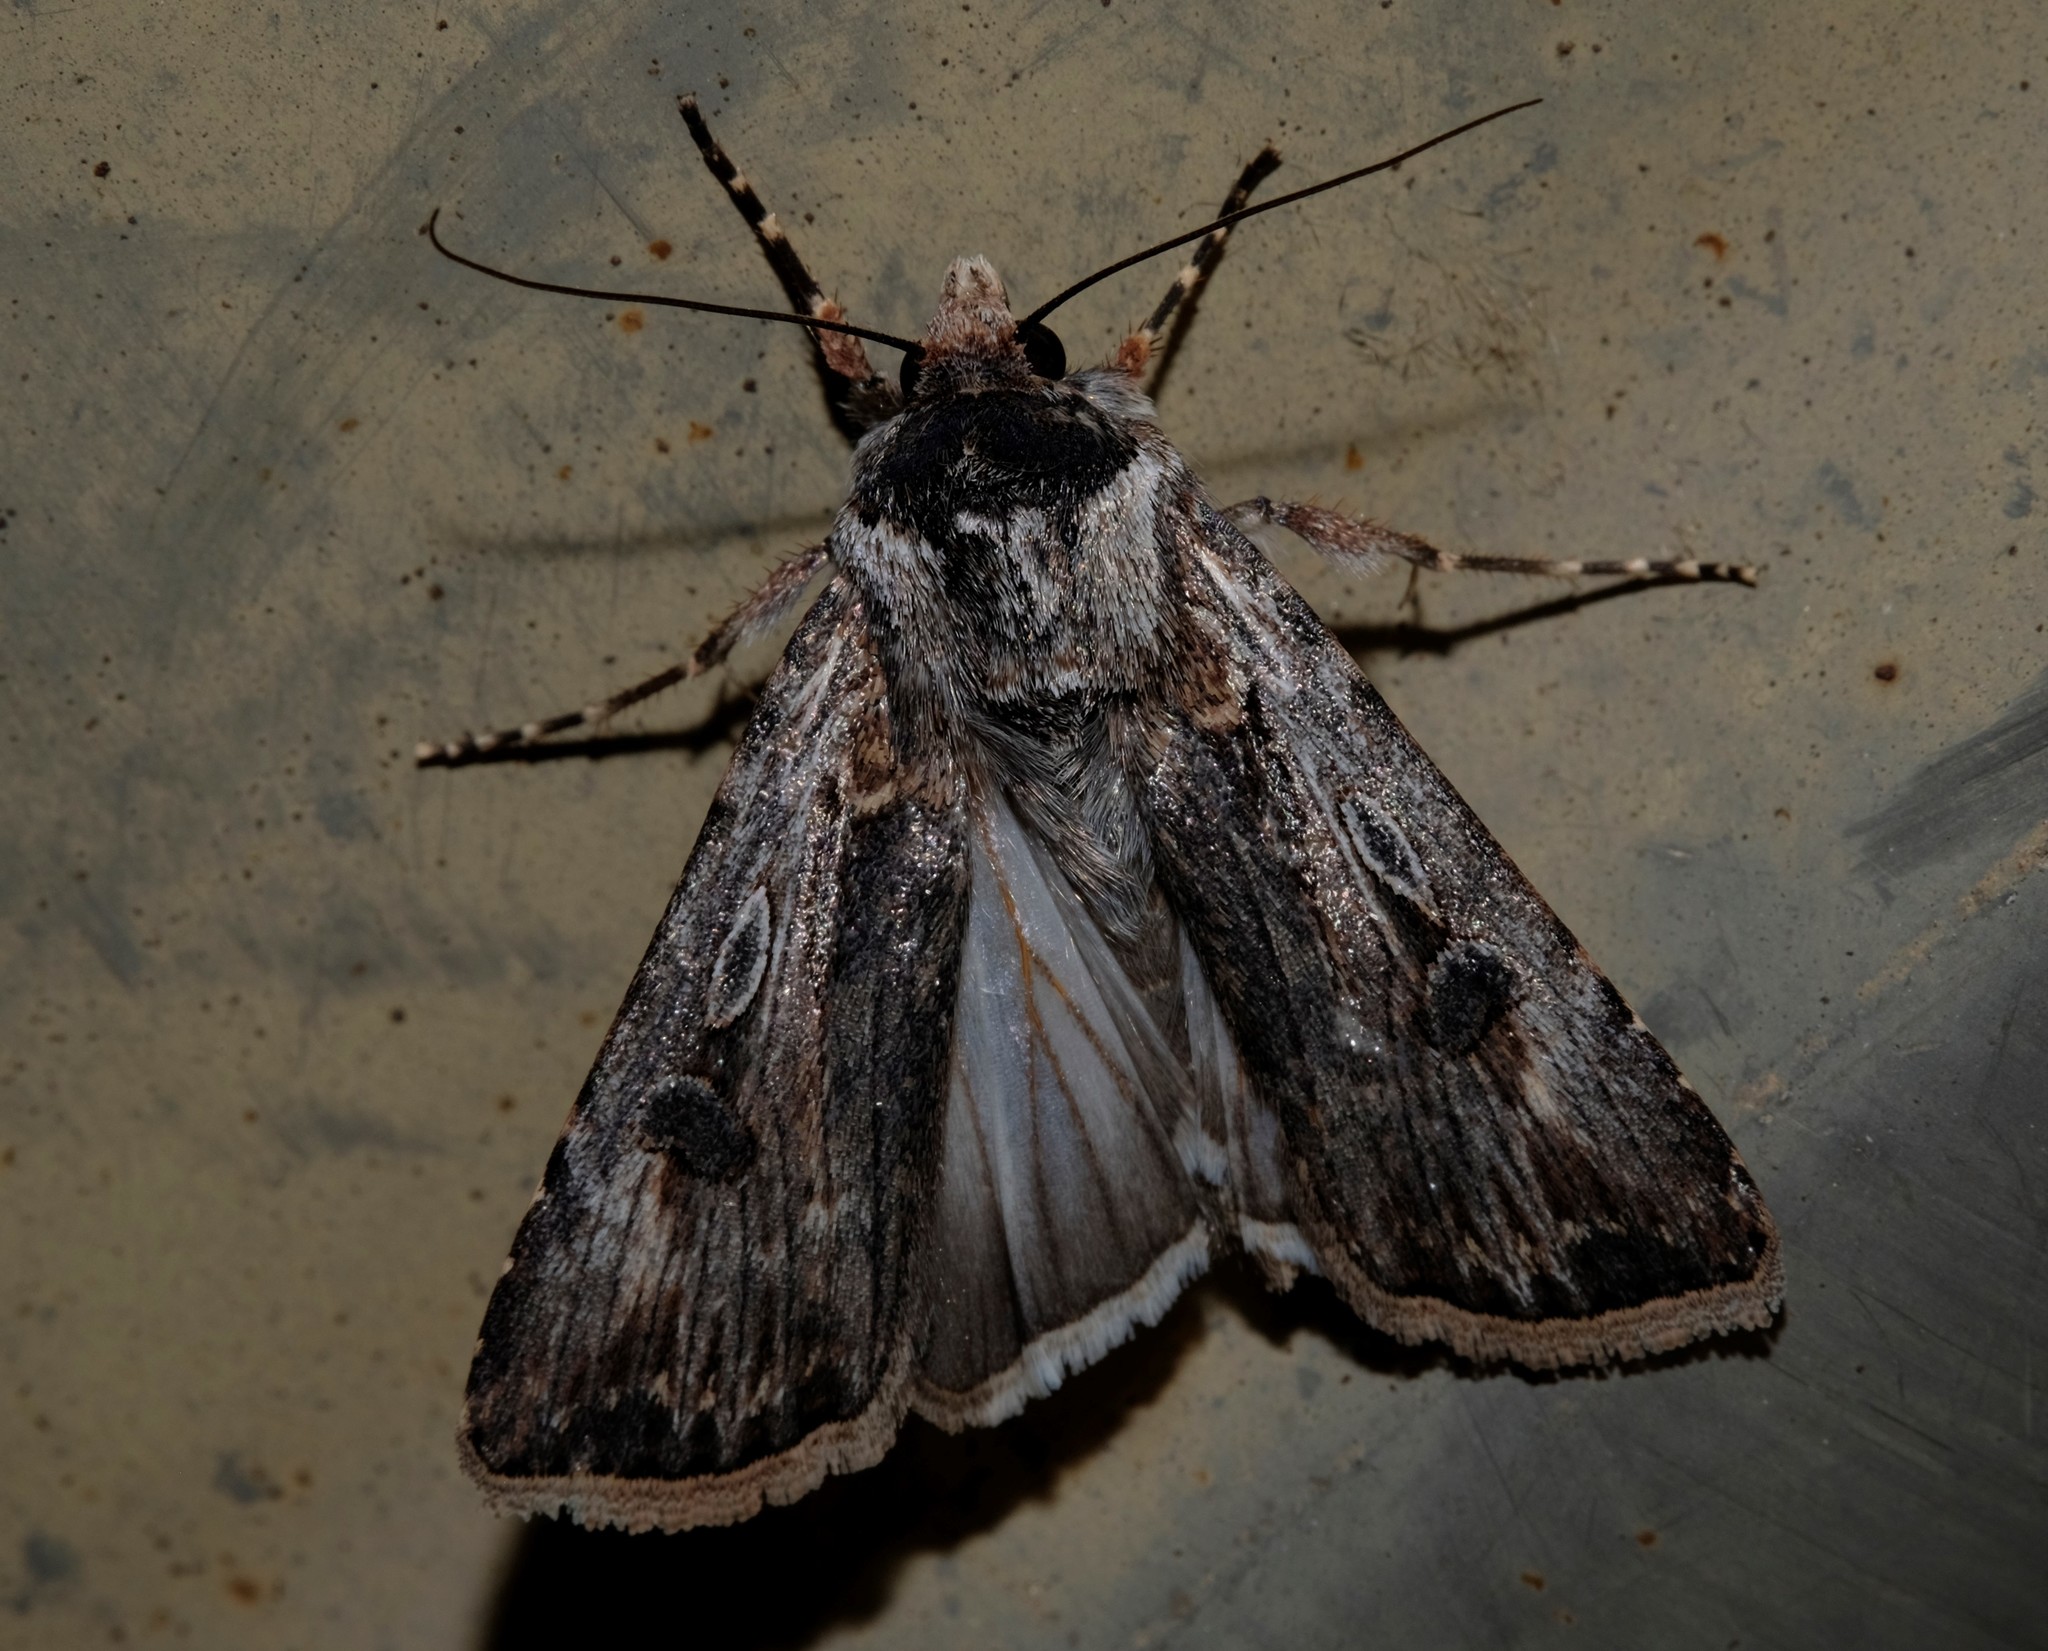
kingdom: Animalia
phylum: Arthropoda
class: Insecta
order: Lepidoptera
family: Noctuidae
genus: Agrotis
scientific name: Agrotis munda
